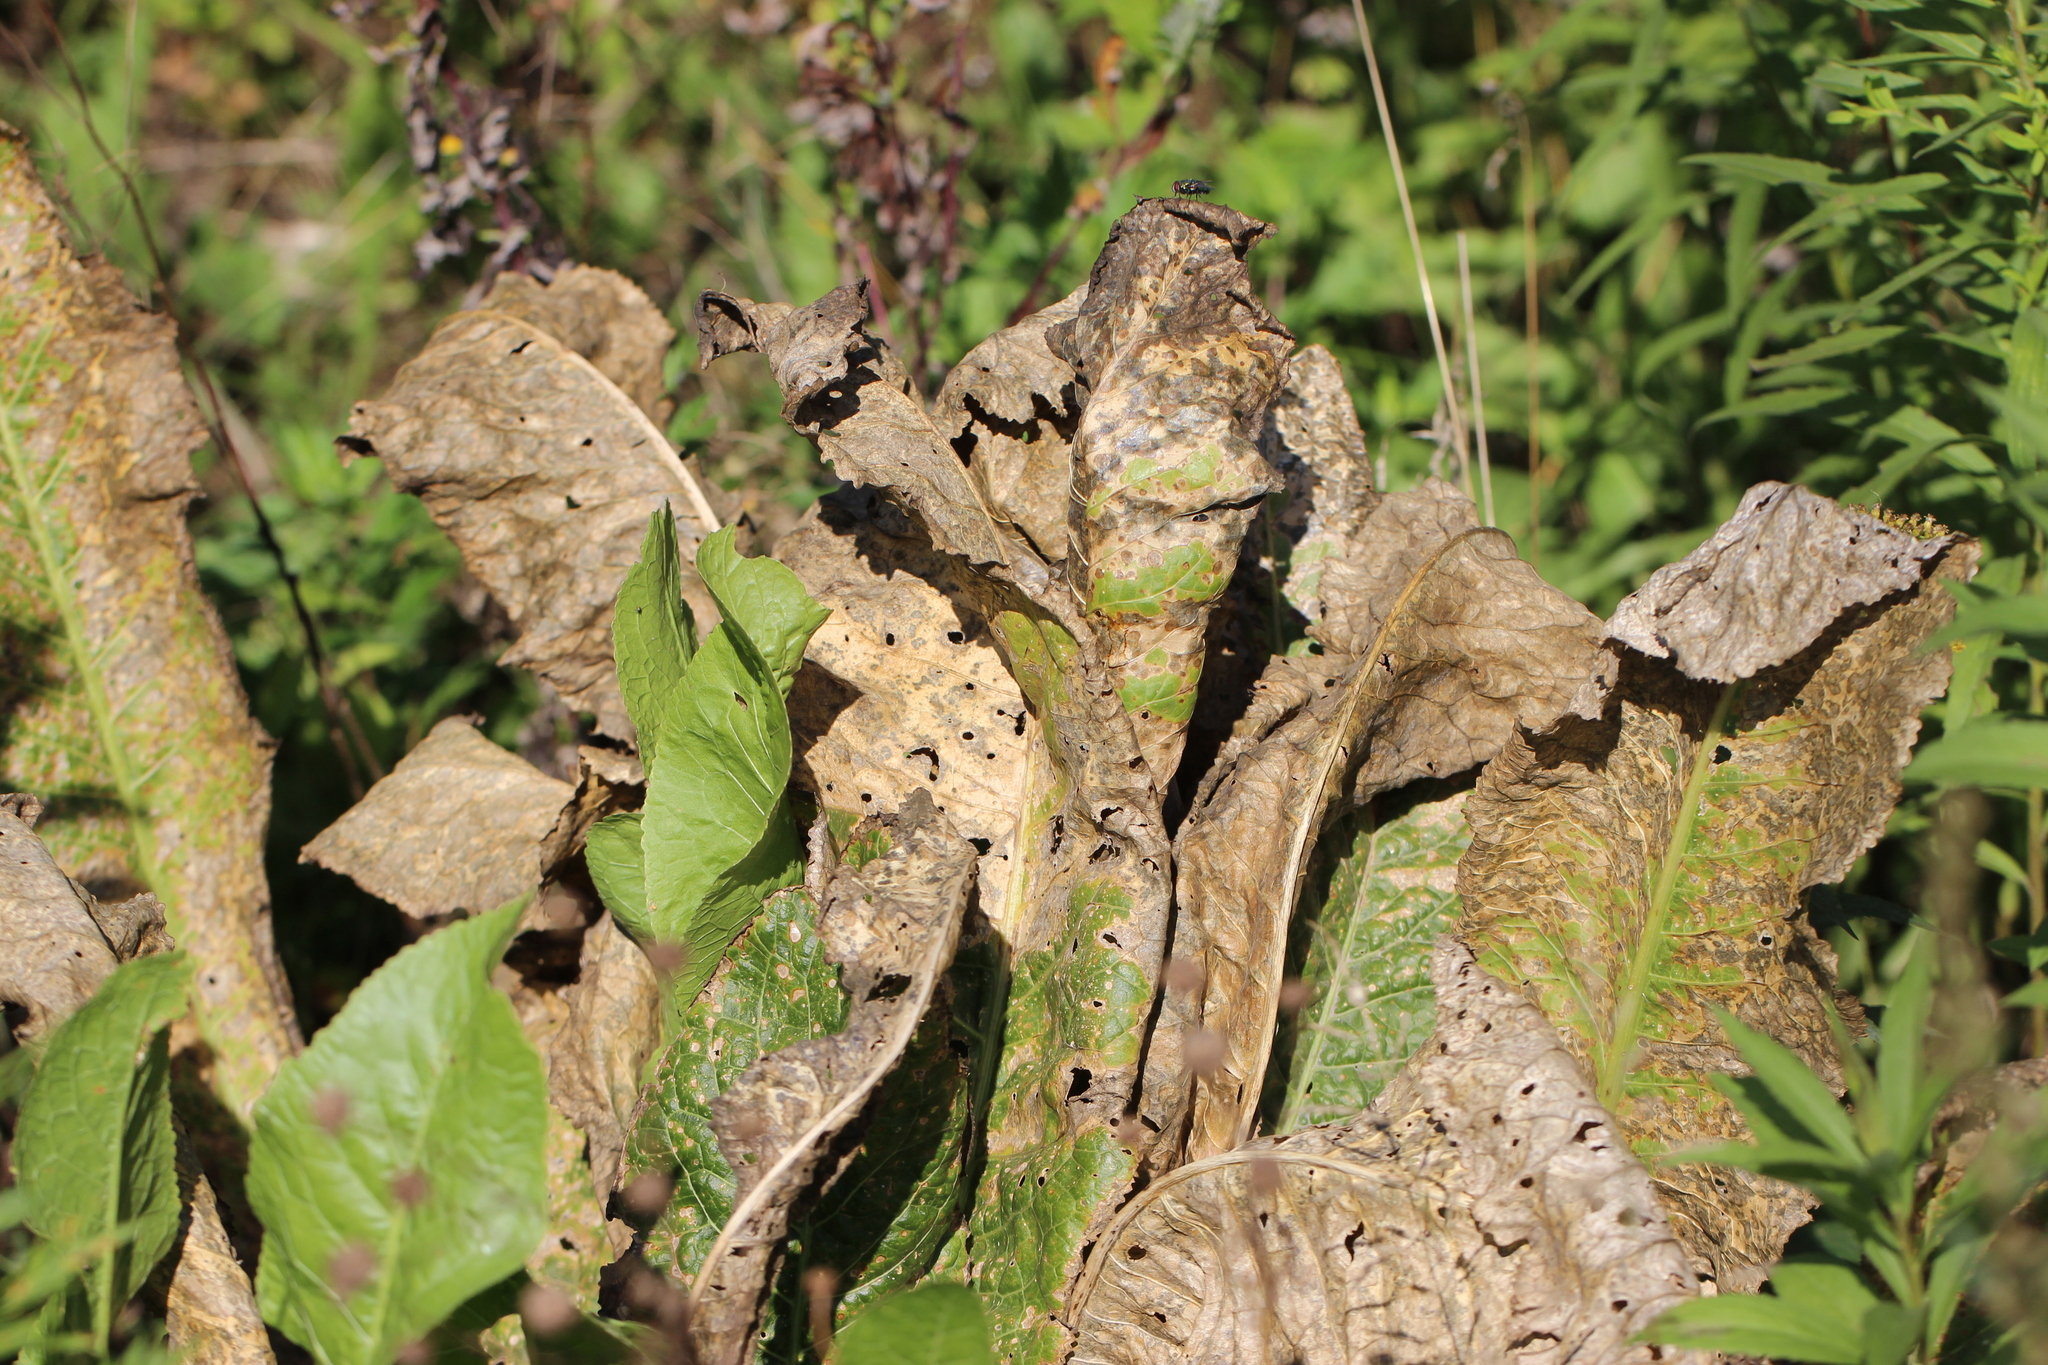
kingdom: Plantae
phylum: Tracheophyta
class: Magnoliopsida
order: Brassicales
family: Brassicaceae
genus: Armoracia
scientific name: Armoracia rusticana
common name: Horseradish
